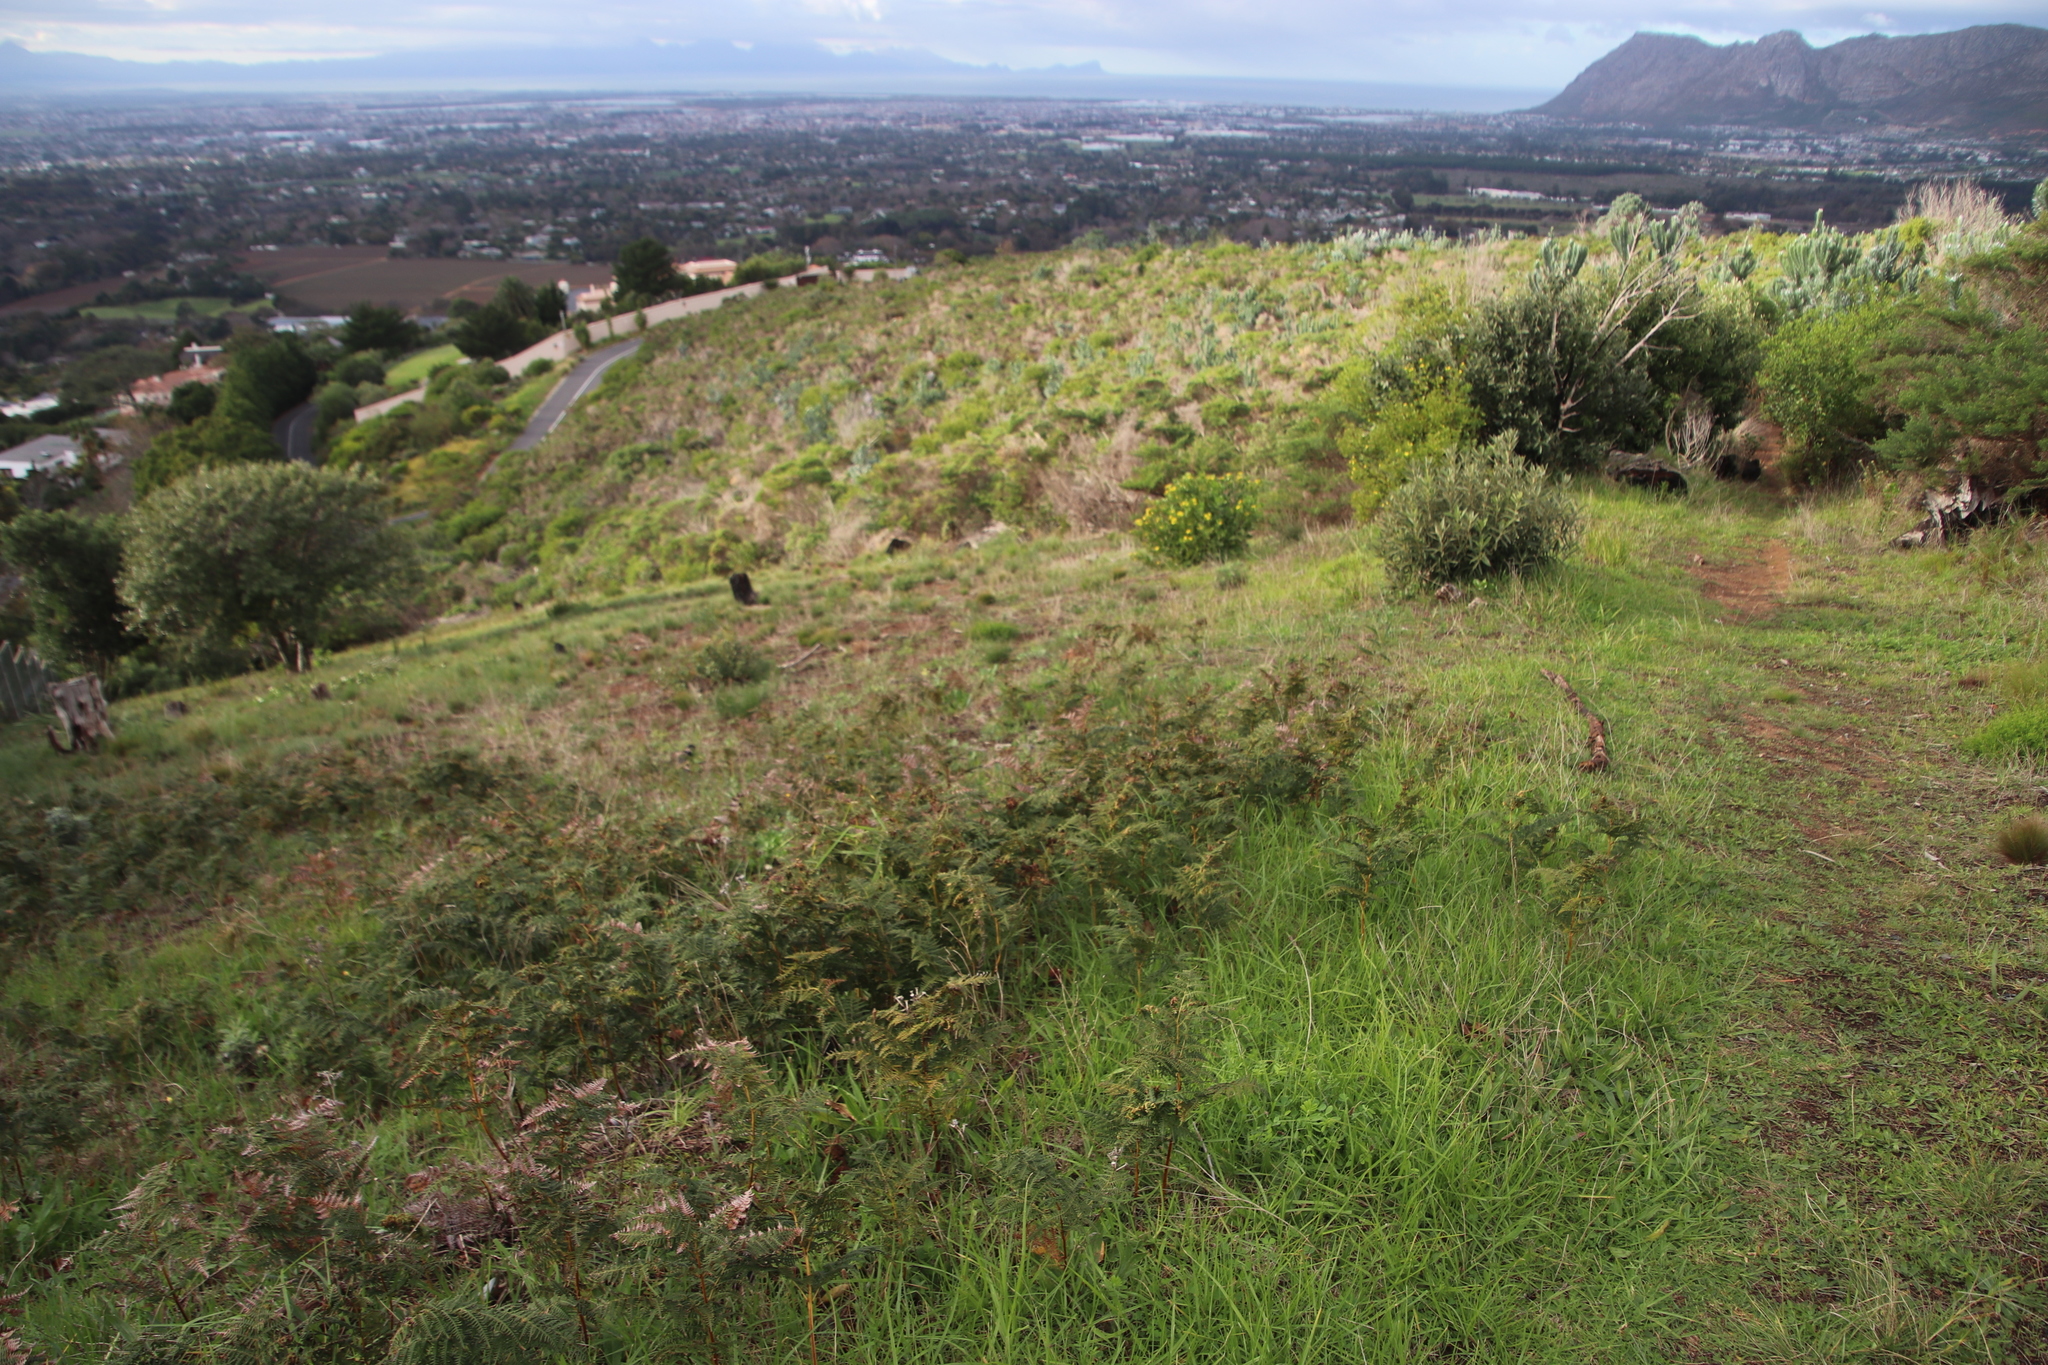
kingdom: Plantae
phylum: Tracheophyta
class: Polypodiopsida
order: Polypodiales
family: Dennstaedtiaceae
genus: Pteridium
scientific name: Pteridium aquilinum
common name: Bracken
